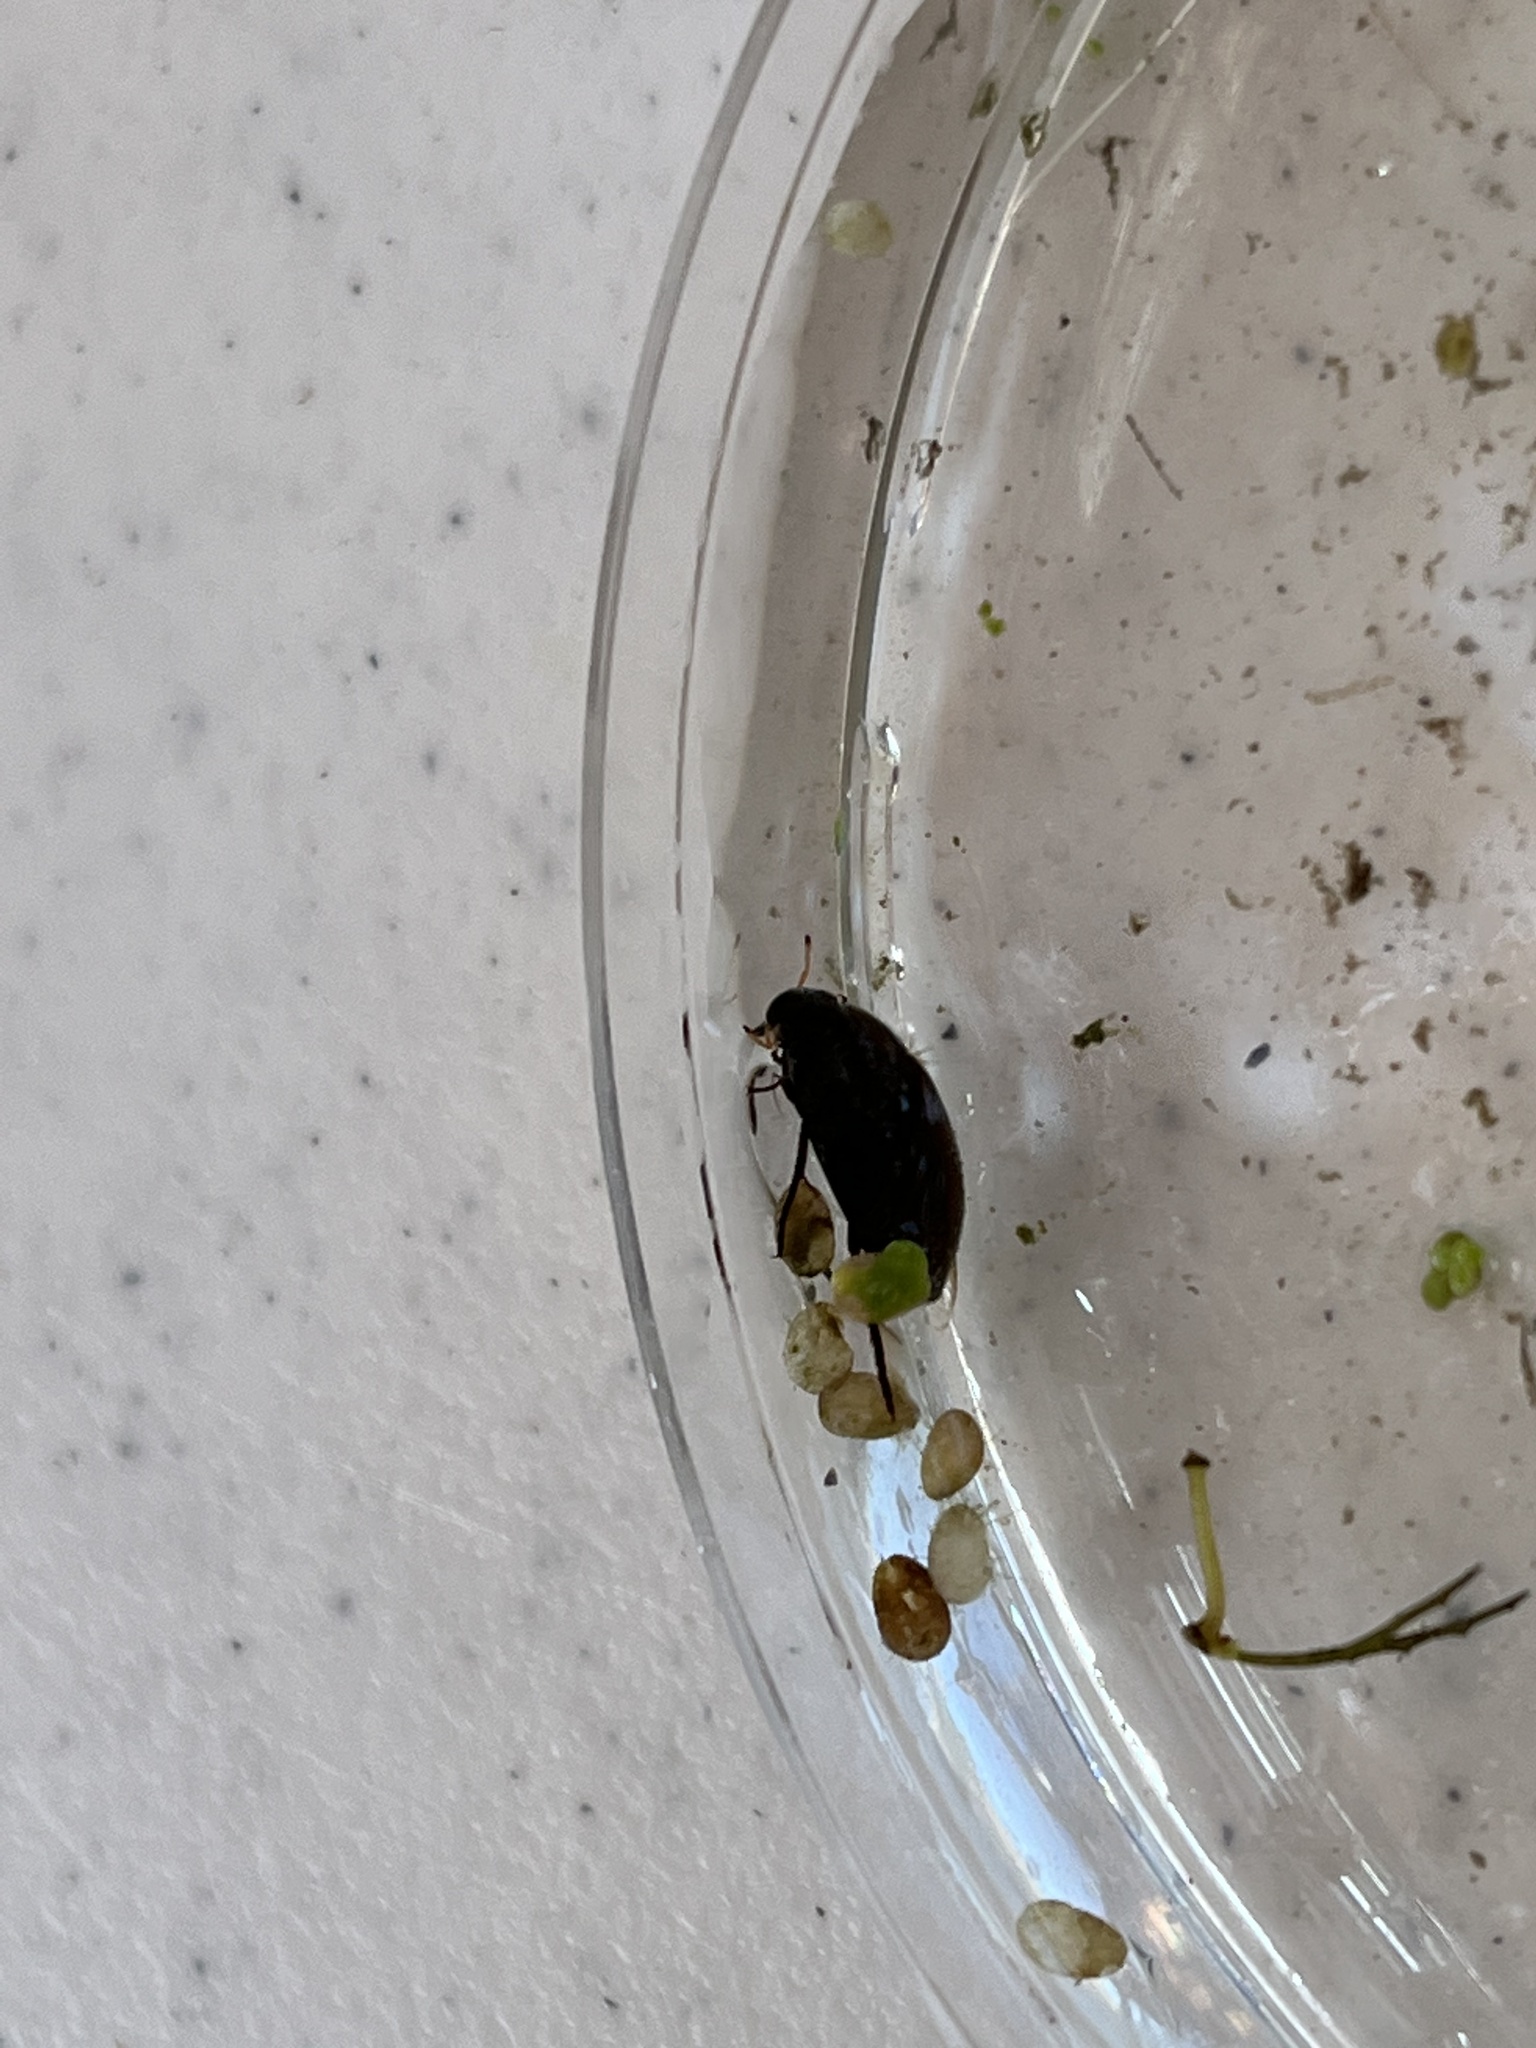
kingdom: Animalia
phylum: Arthropoda
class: Insecta
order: Coleoptera
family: Hydrophilidae
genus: Tropisternus
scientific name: Tropisternus
